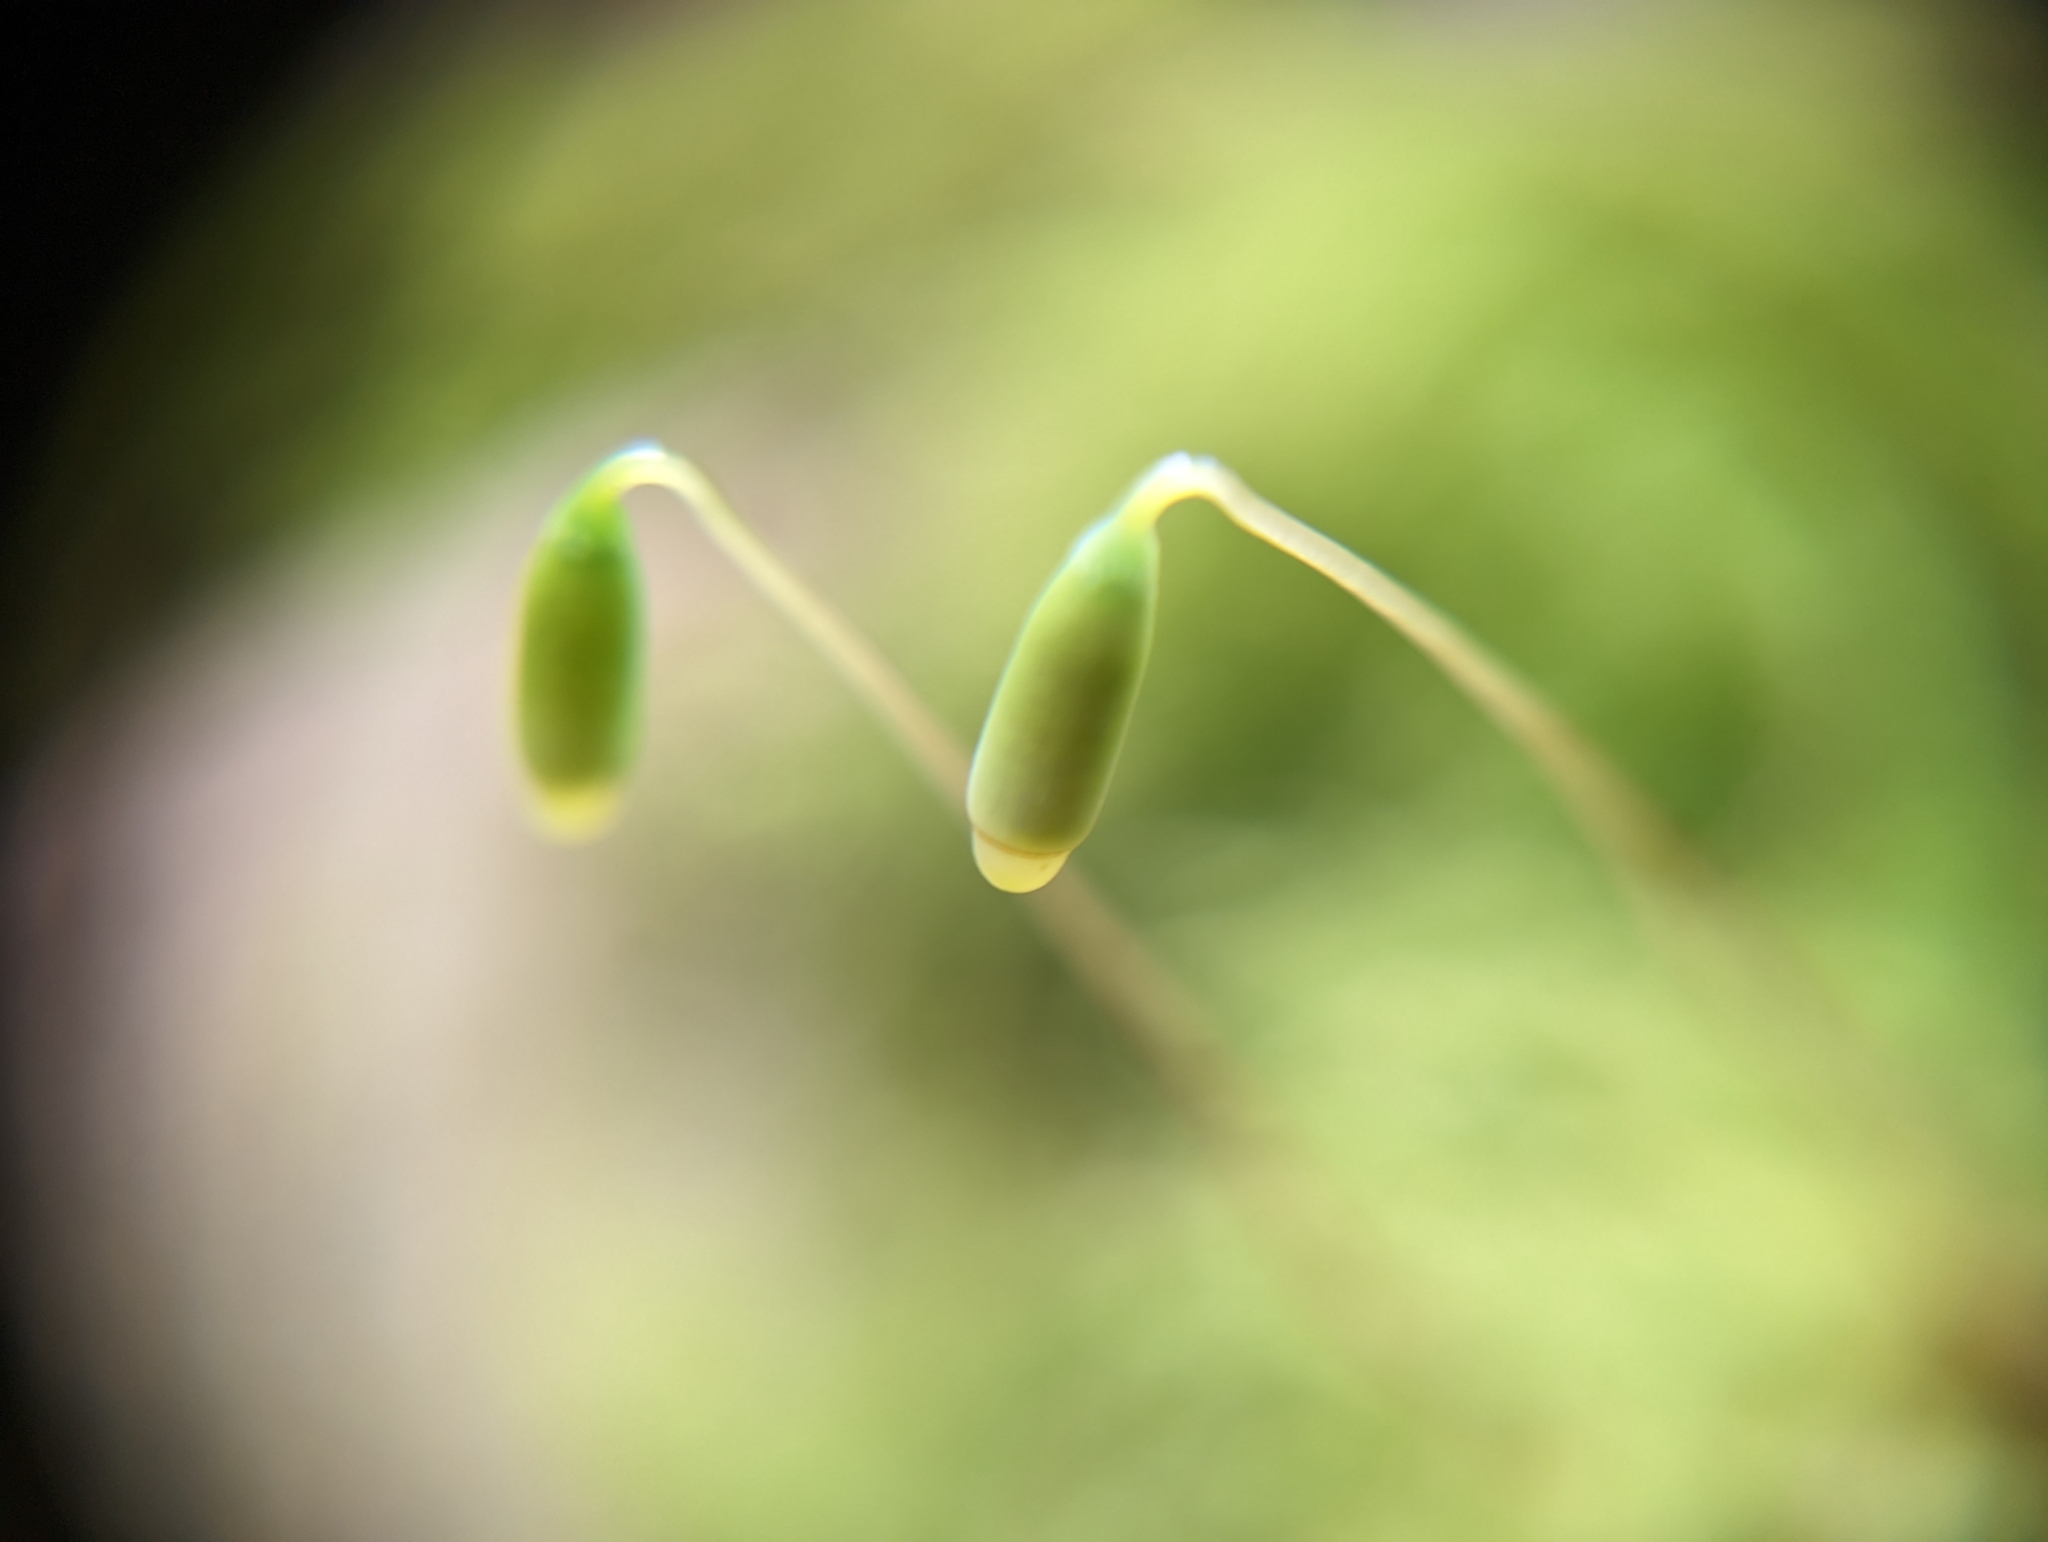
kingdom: Plantae
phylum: Bryophyta
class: Bryopsida
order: Bryales
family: Mniaceae
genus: Leucolepis
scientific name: Leucolepis acanthoneura
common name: Leucolepis umbrella moss
